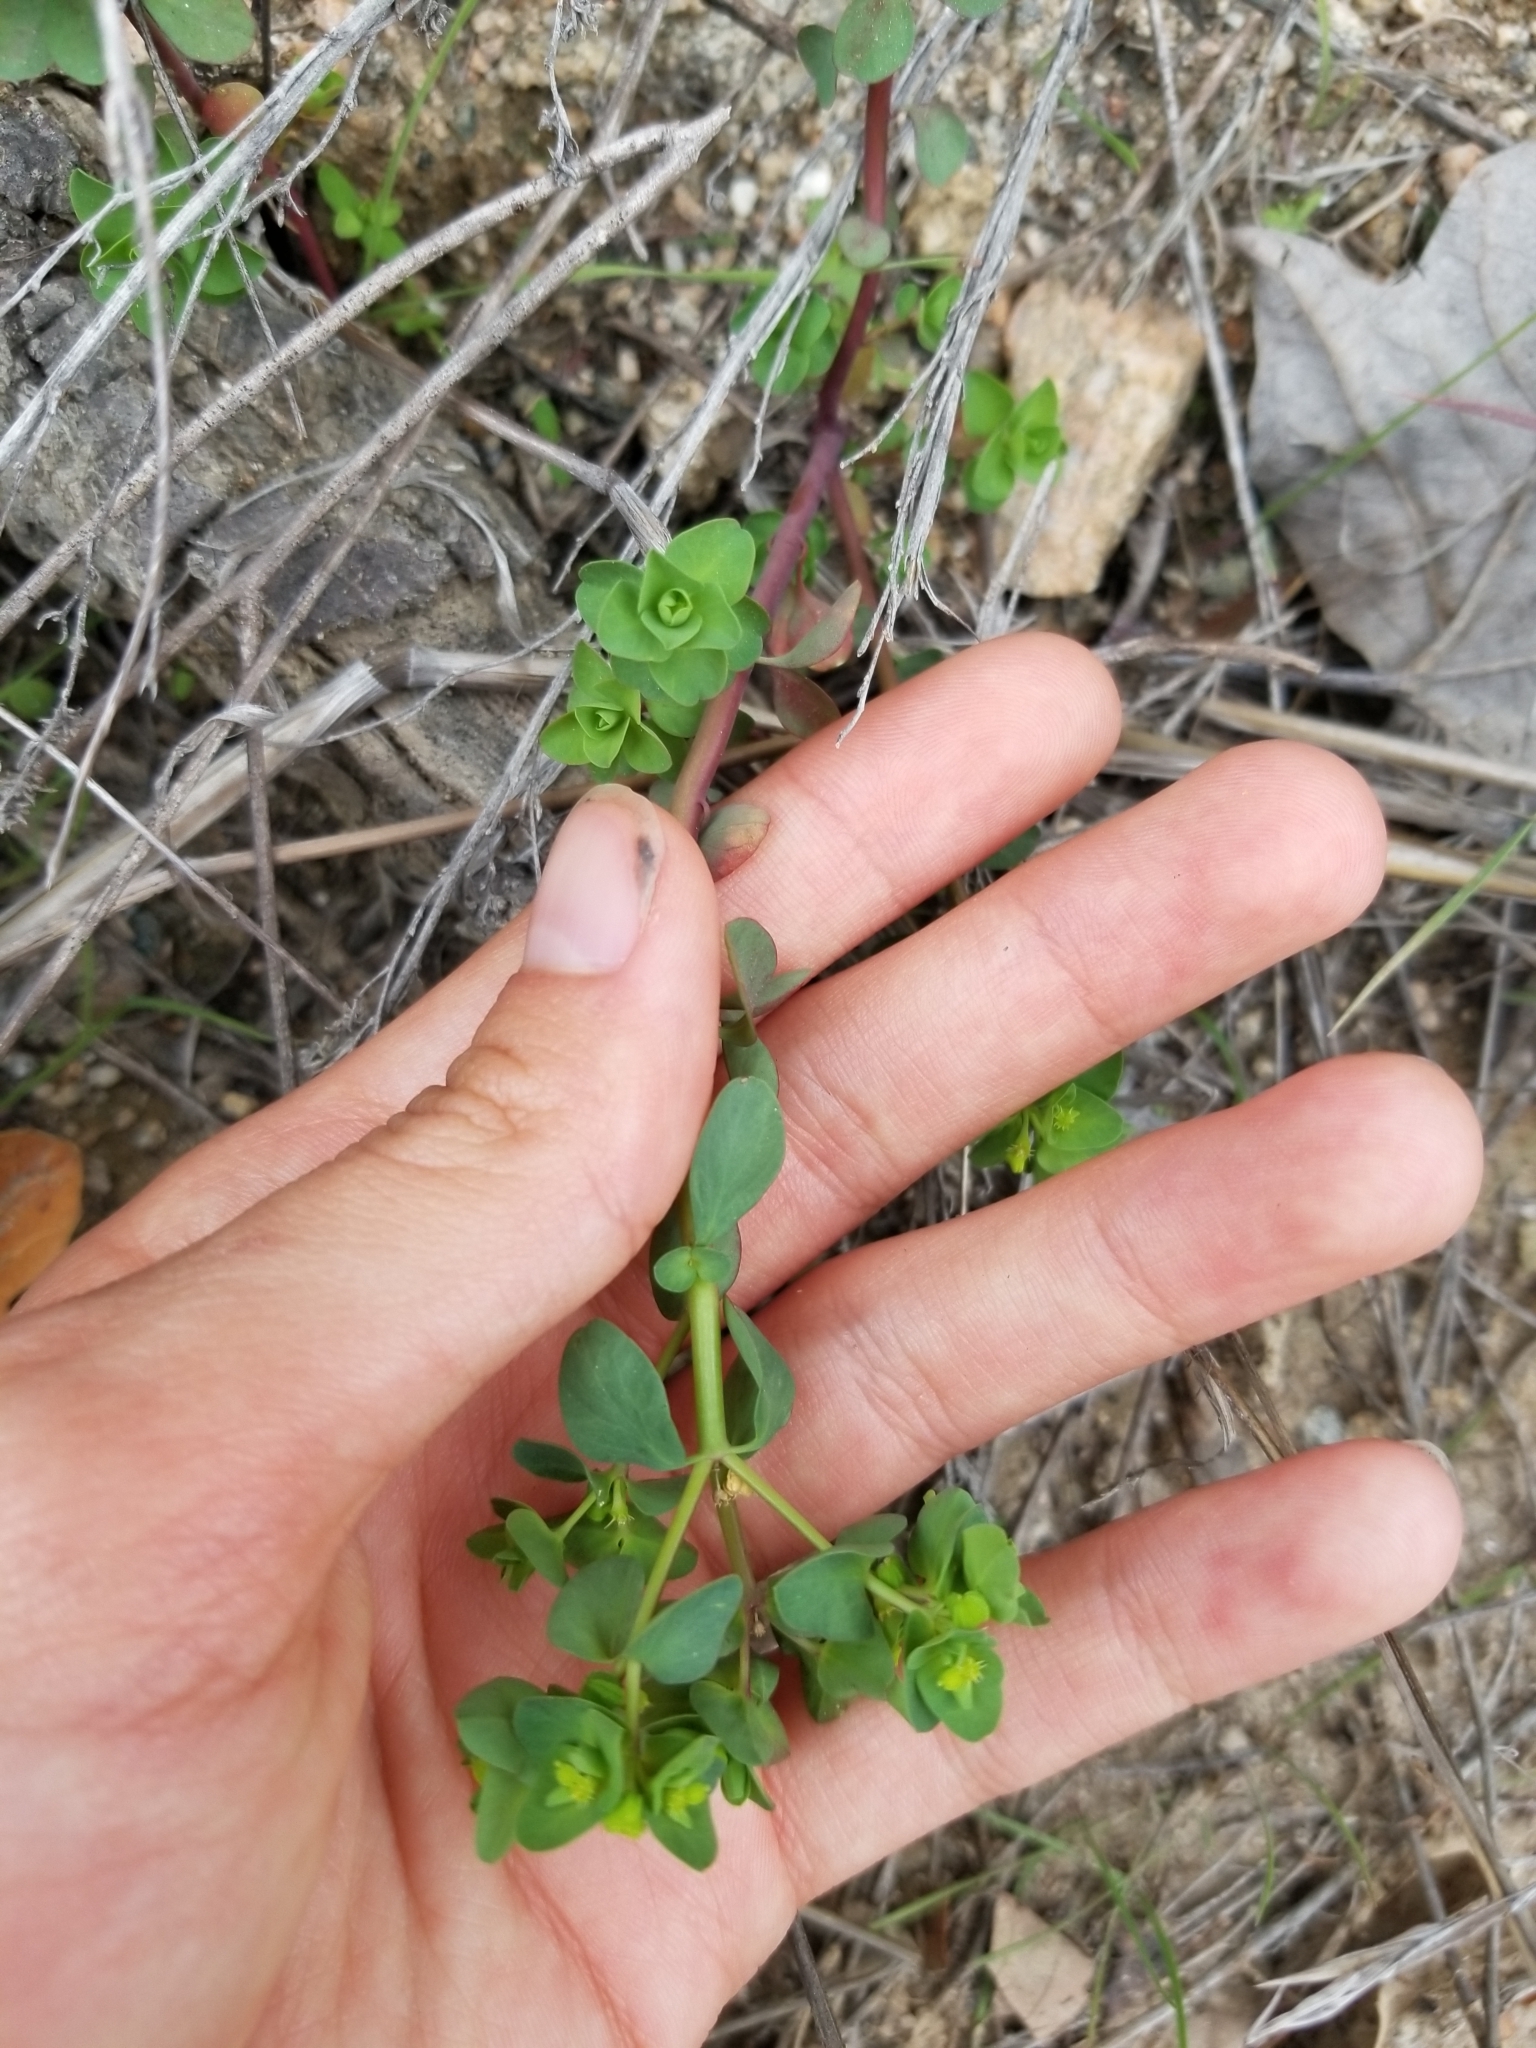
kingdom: Plantae
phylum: Tracheophyta
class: Magnoliopsida
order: Malpighiales
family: Euphorbiaceae
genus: Euphorbia
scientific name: Euphorbia peplus
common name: Petty spurge
